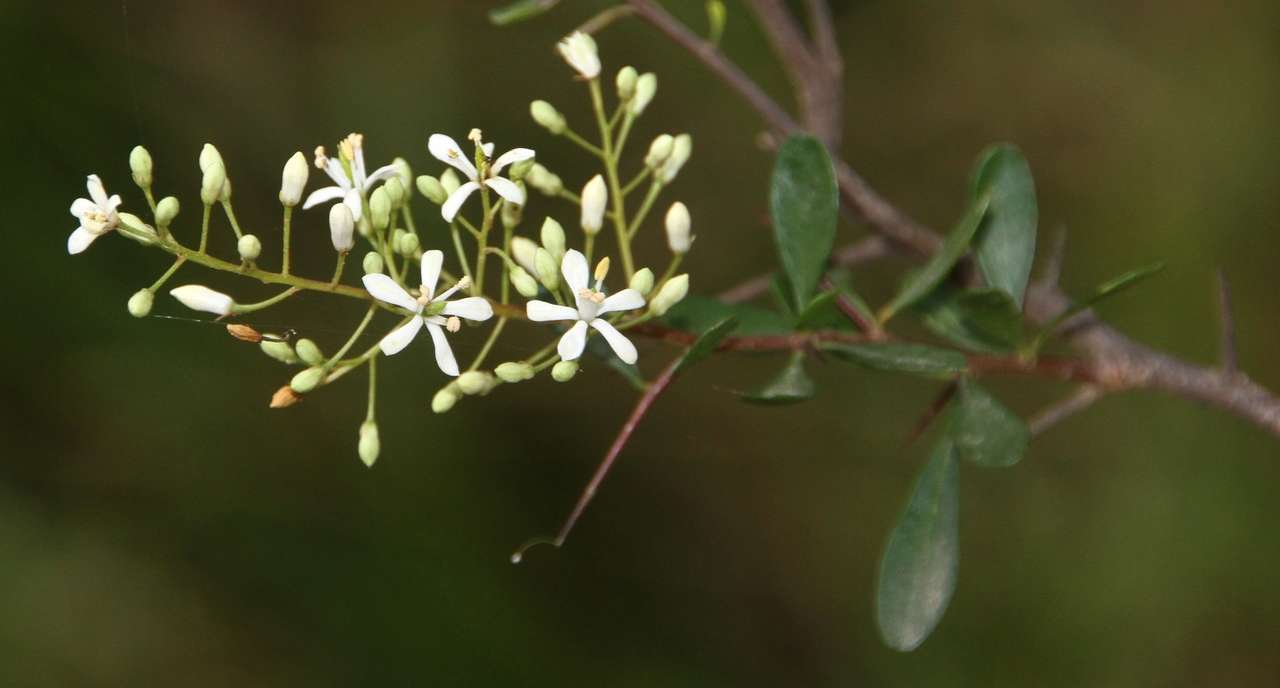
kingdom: Plantae
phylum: Tracheophyta
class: Magnoliopsida
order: Apiales
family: Pittosporaceae
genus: Bursaria
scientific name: Bursaria spinosa
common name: Australian blackthorn
